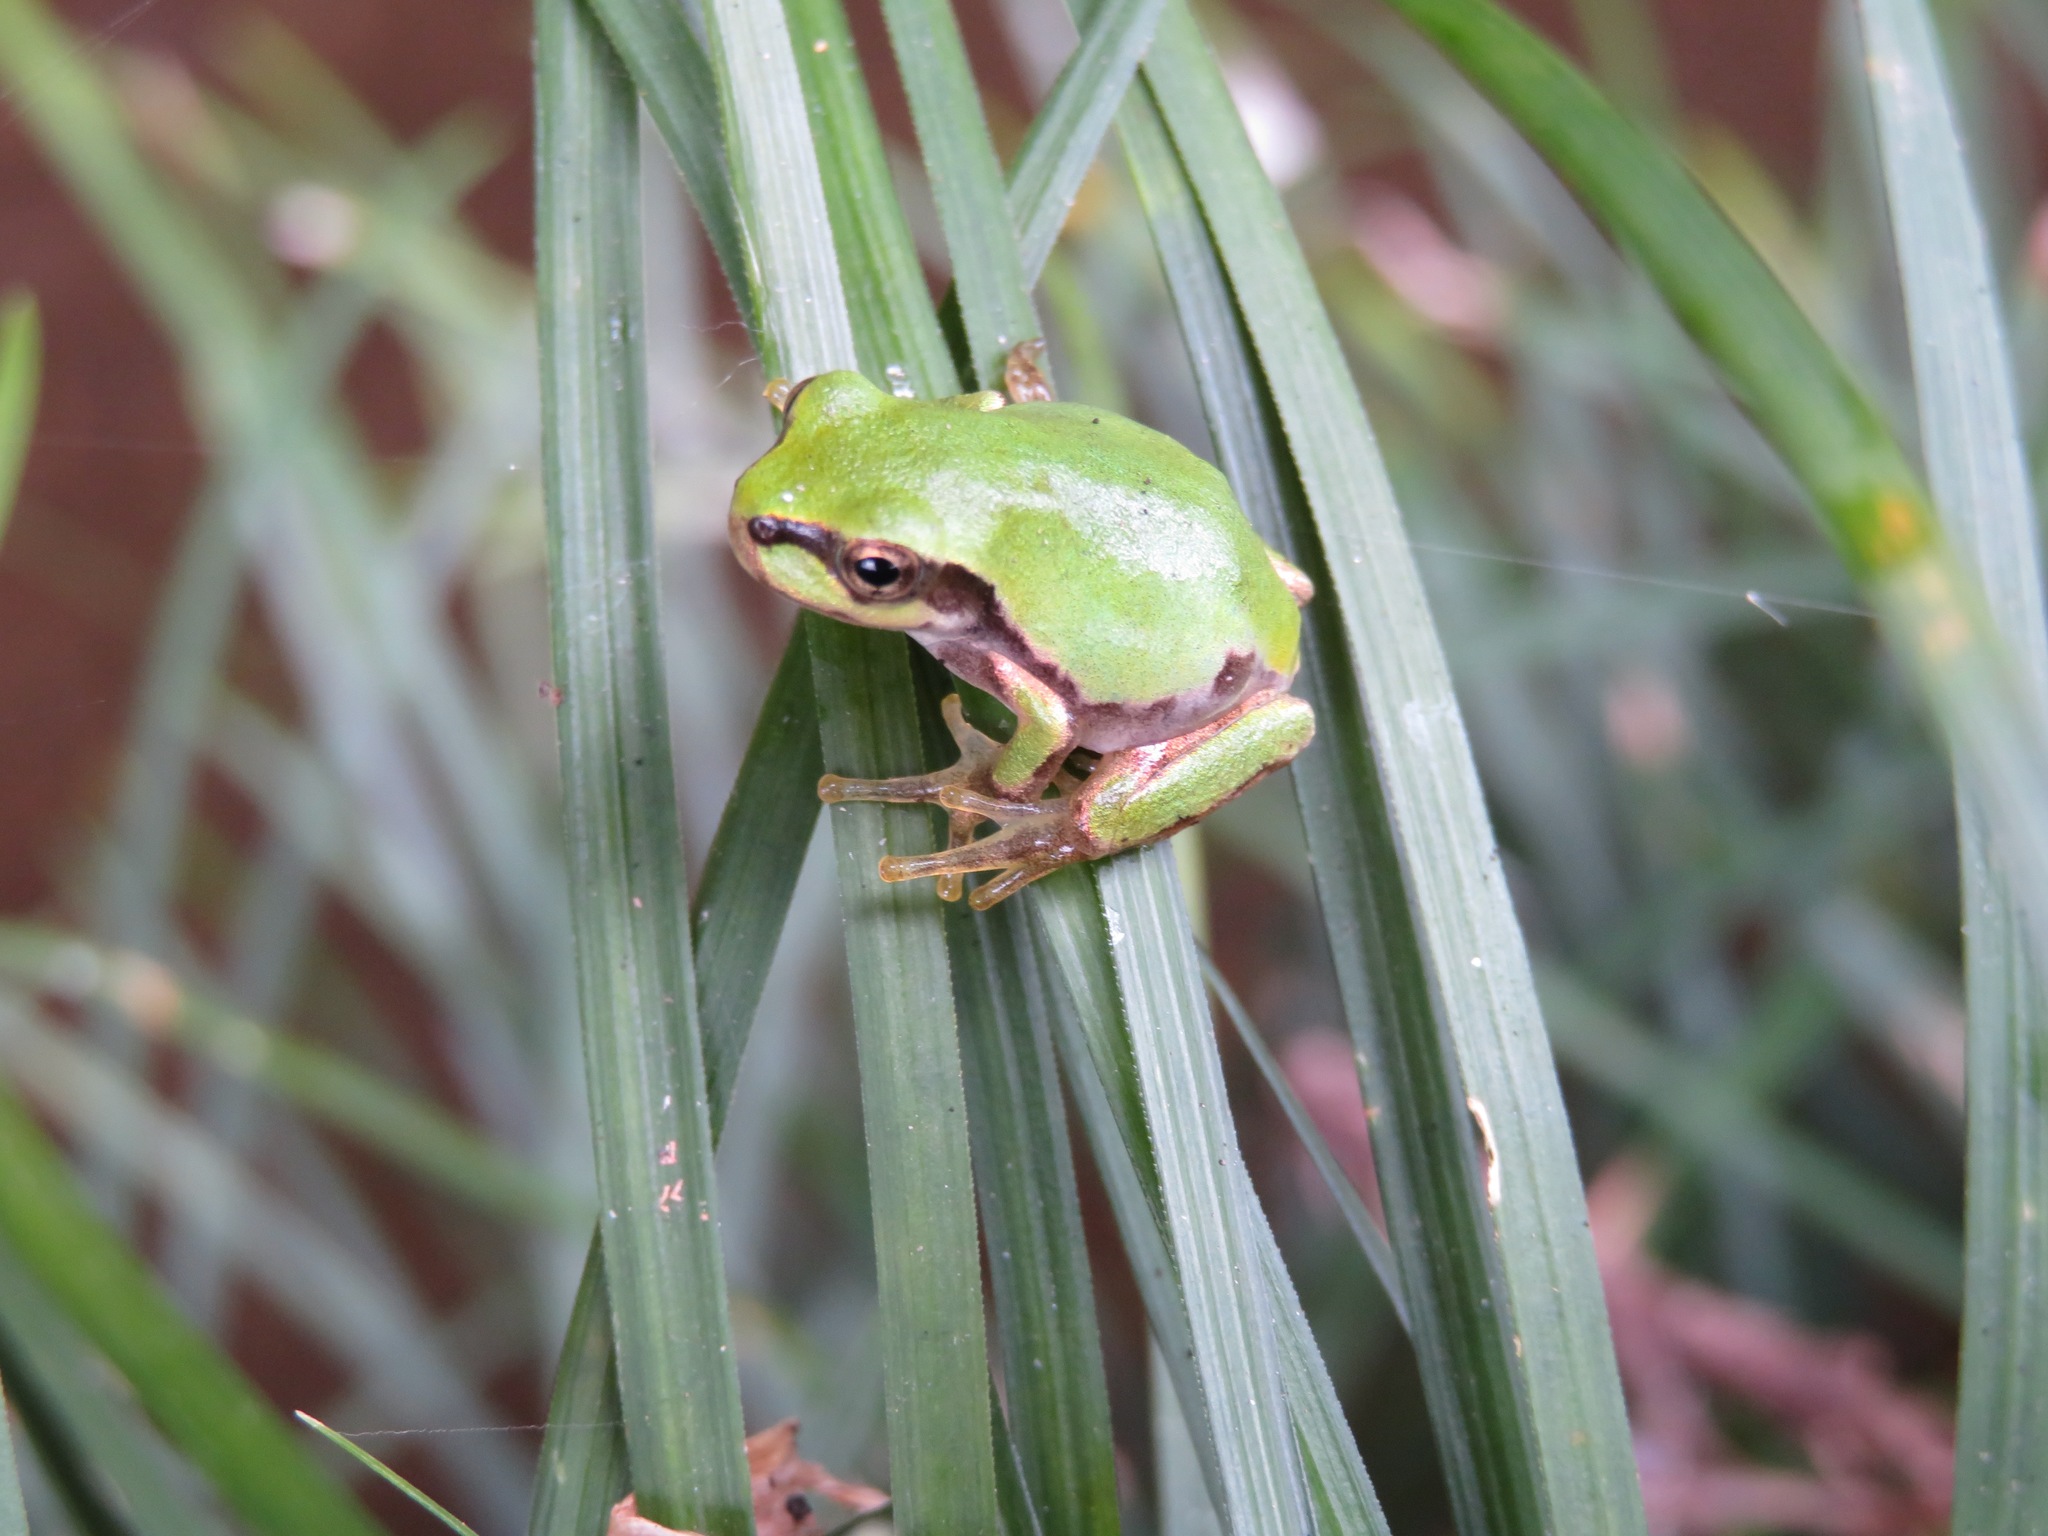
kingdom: Animalia
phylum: Chordata
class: Amphibia
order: Anura
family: Hylidae
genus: Dryophytes
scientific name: Dryophytes japonicus
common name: Japanese treefrog
